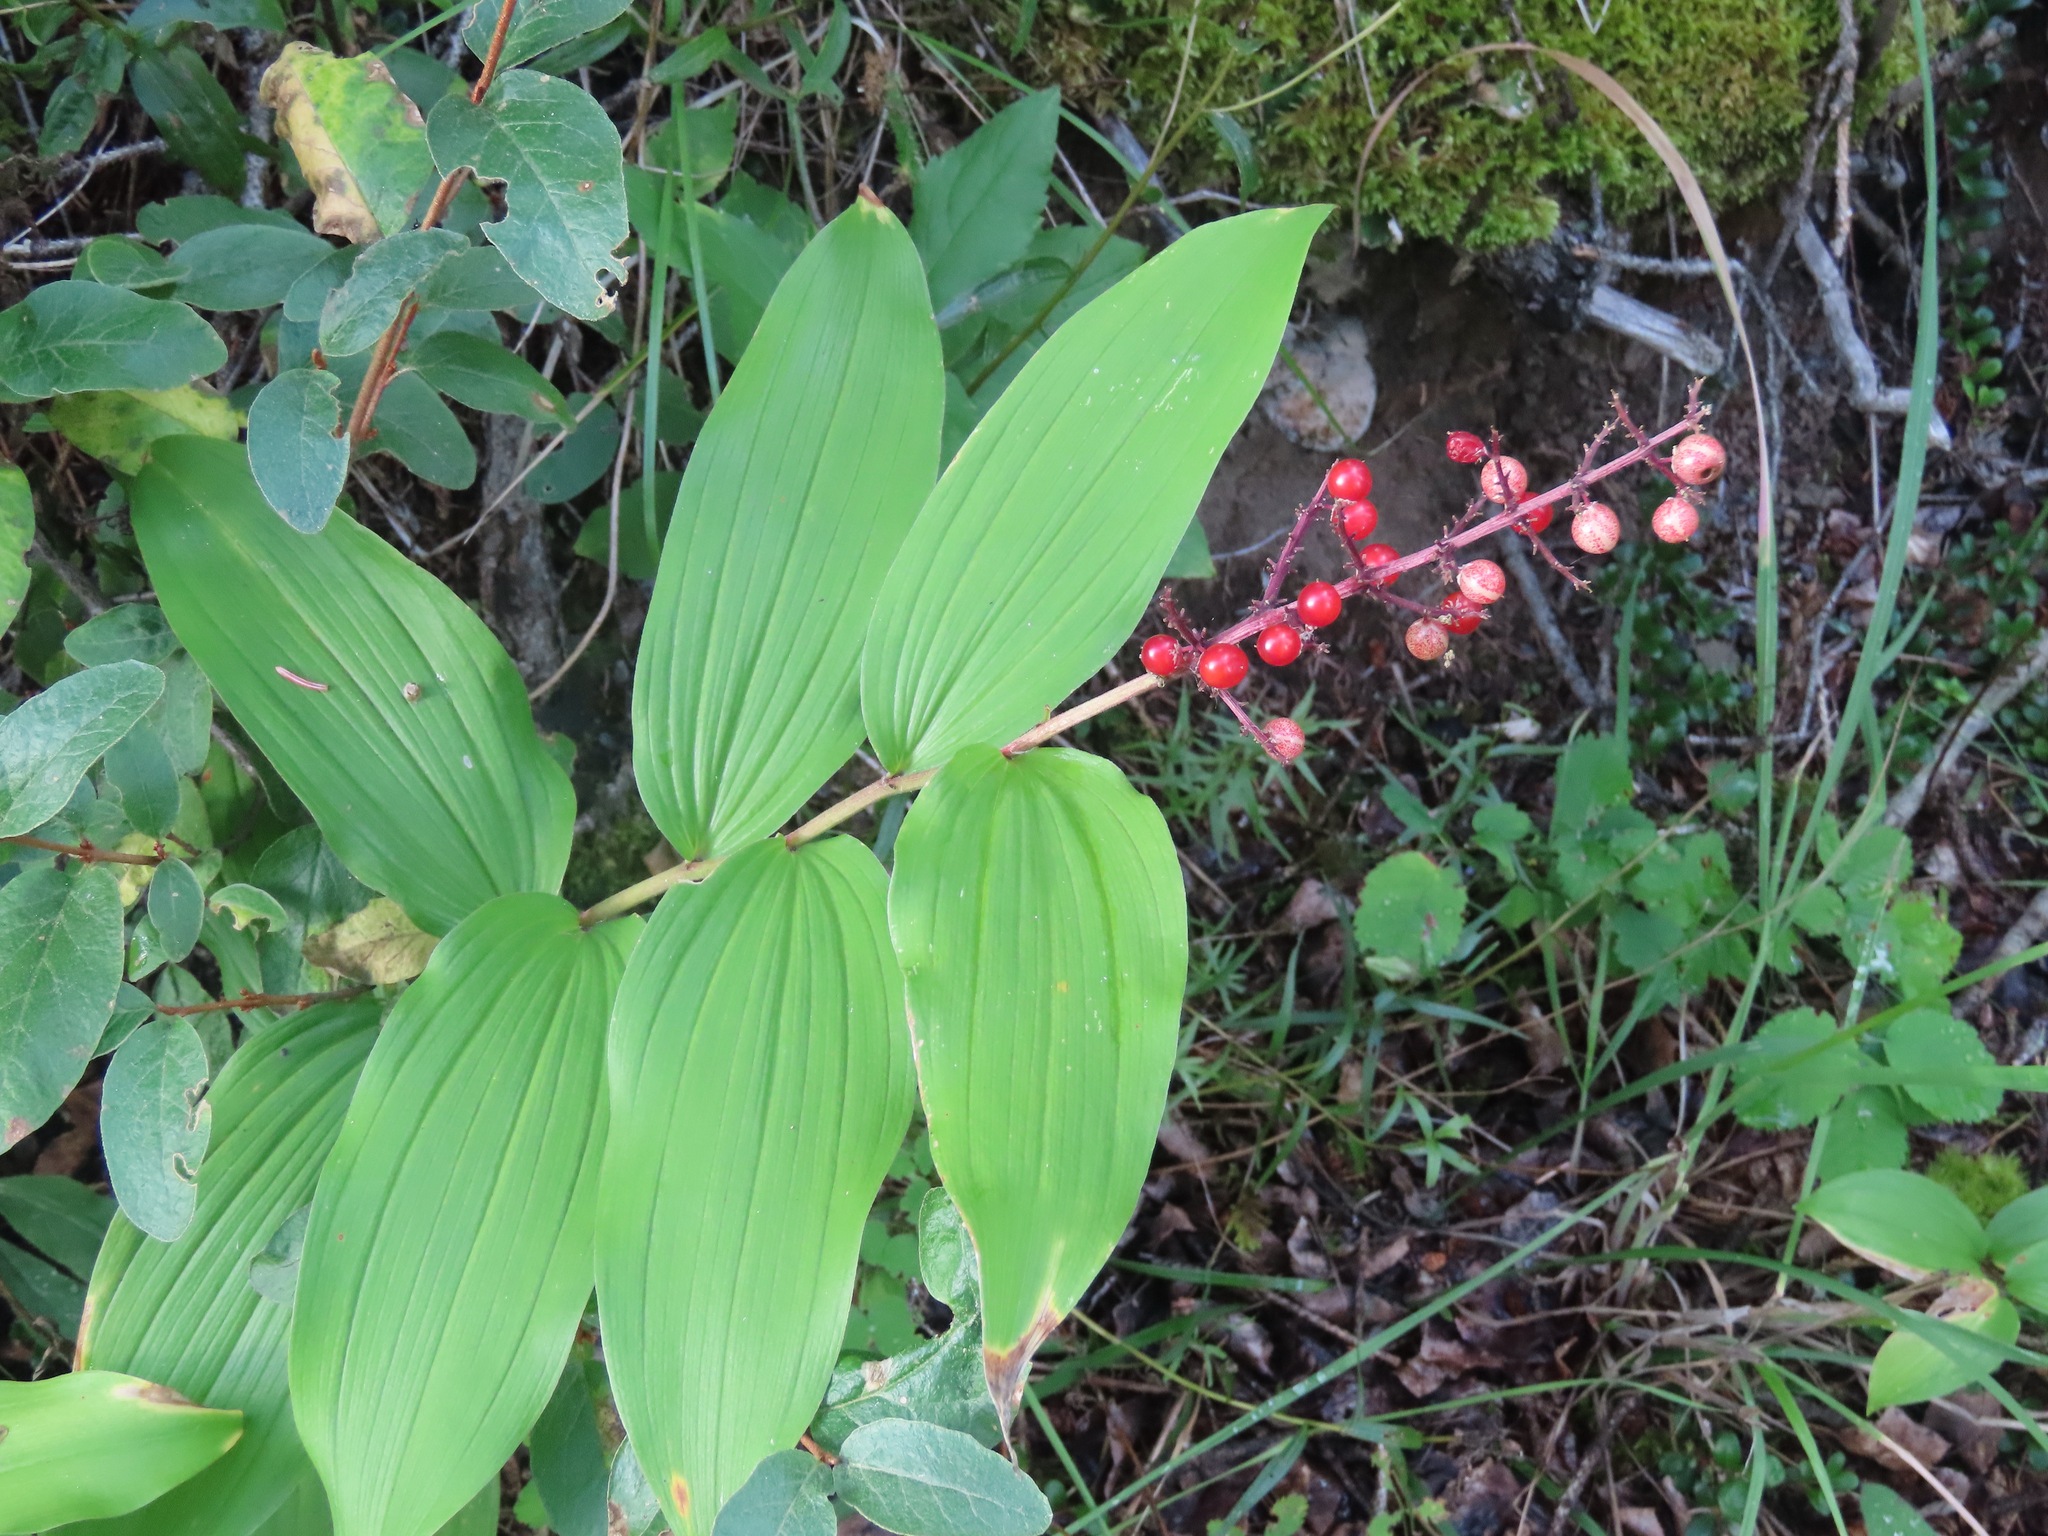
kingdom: Plantae
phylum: Tracheophyta
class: Liliopsida
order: Asparagales
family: Asparagaceae
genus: Maianthemum
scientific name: Maianthemum racemosum
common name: False spikenard
